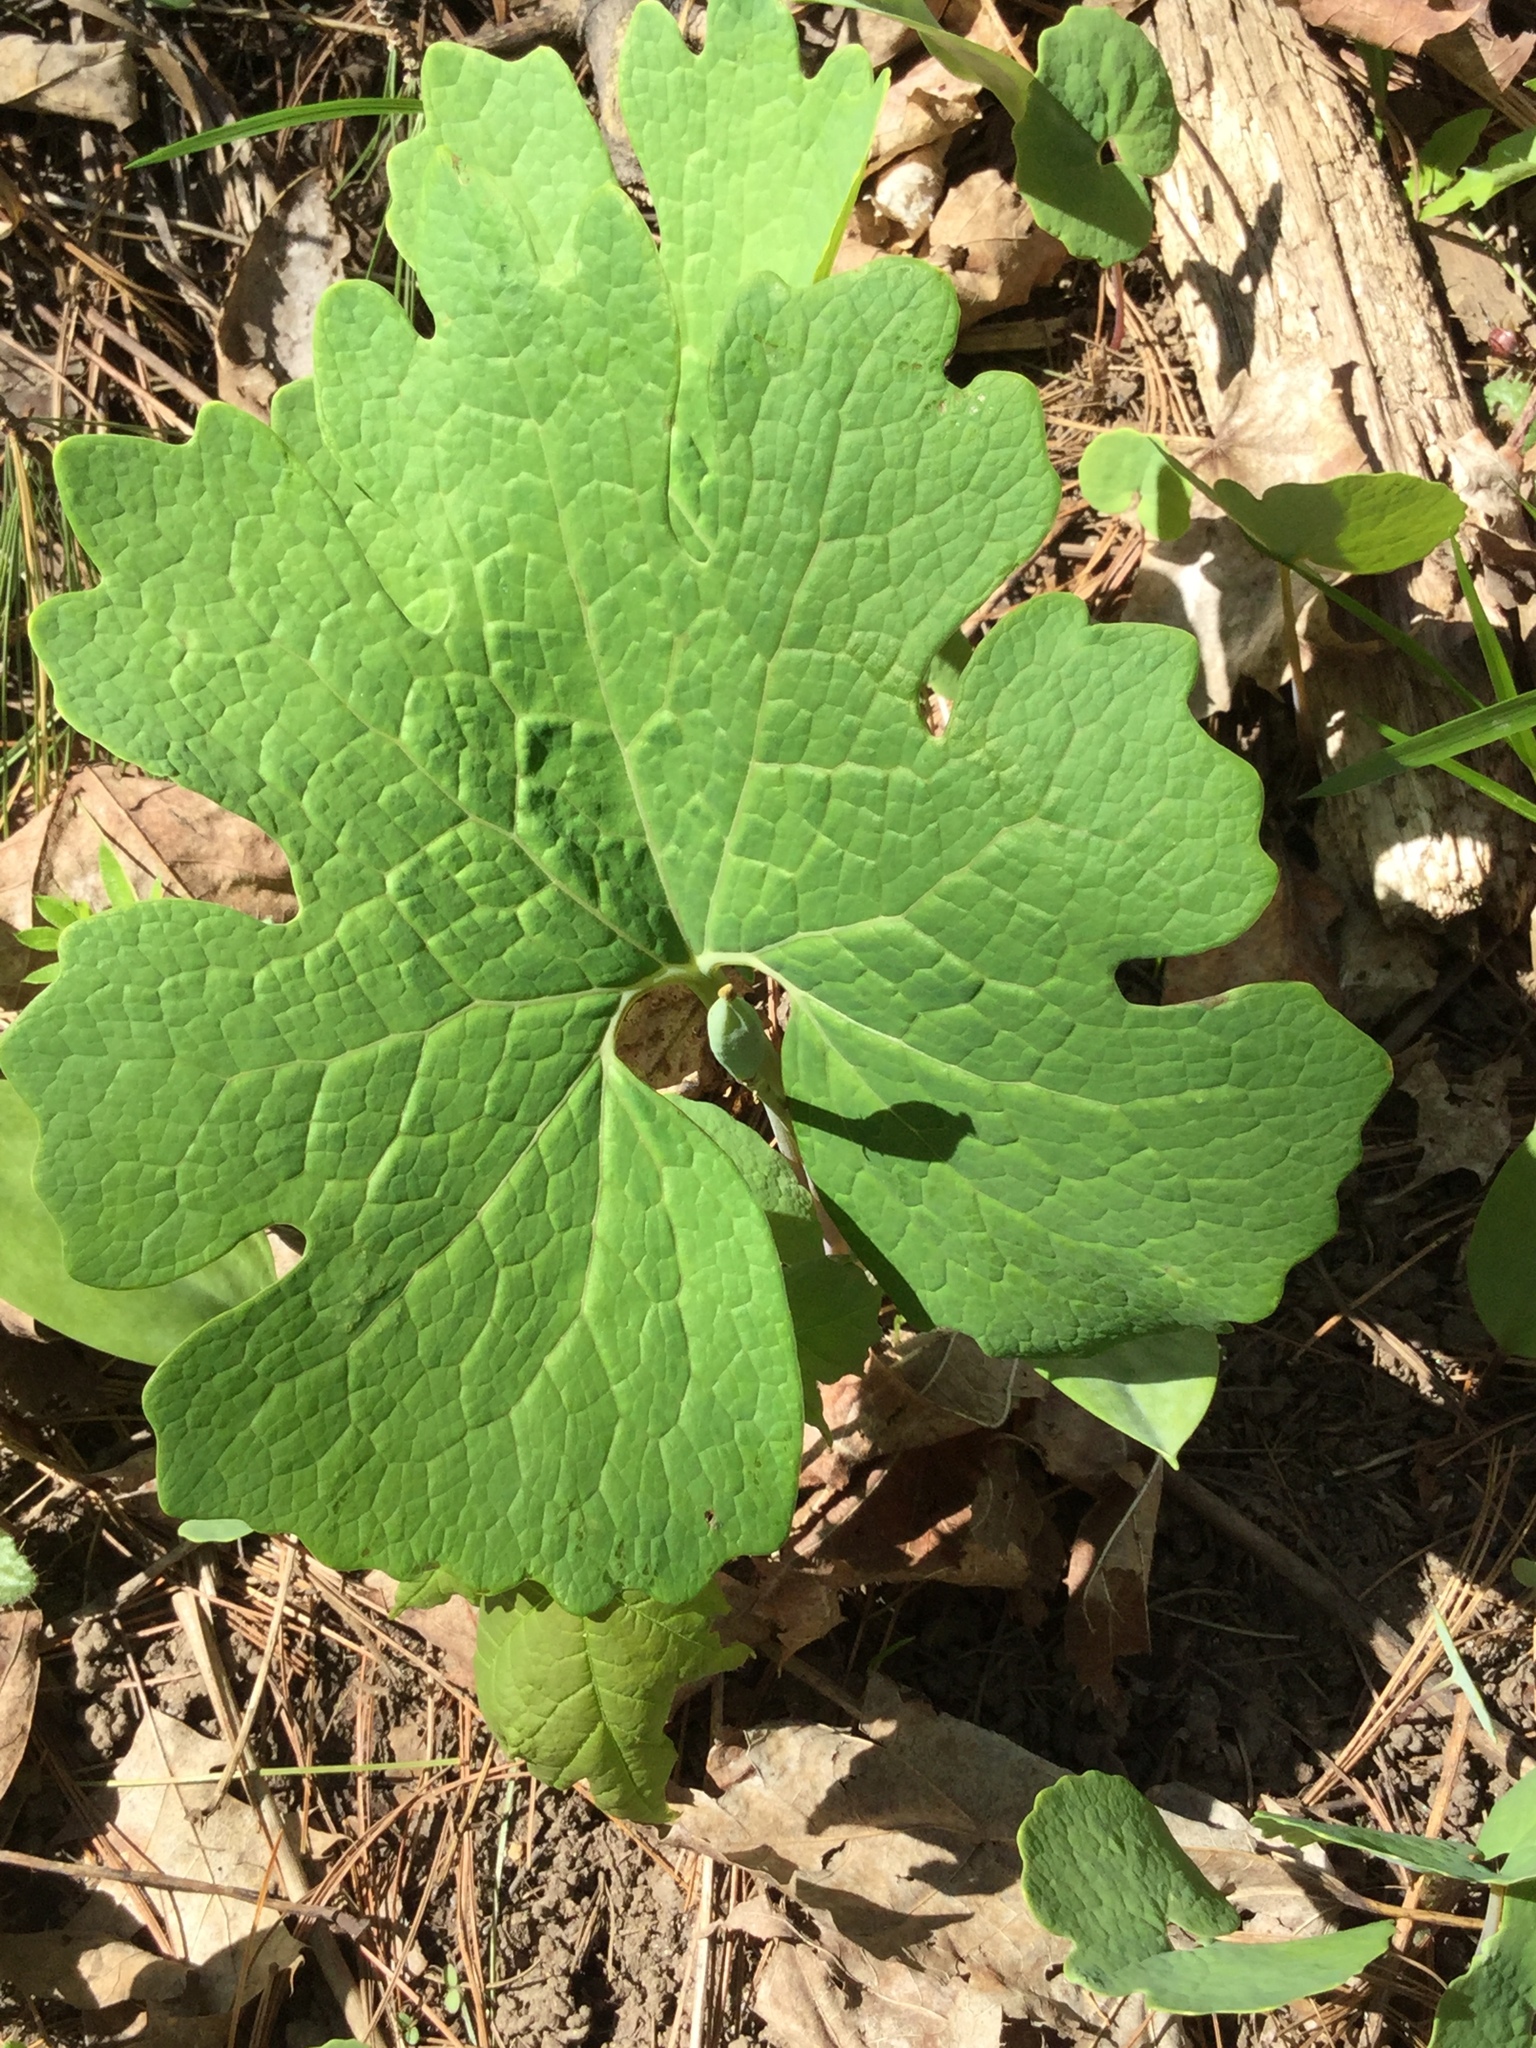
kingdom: Plantae
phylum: Tracheophyta
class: Magnoliopsida
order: Ranunculales
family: Papaveraceae
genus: Sanguinaria
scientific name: Sanguinaria canadensis
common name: Bloodroot
